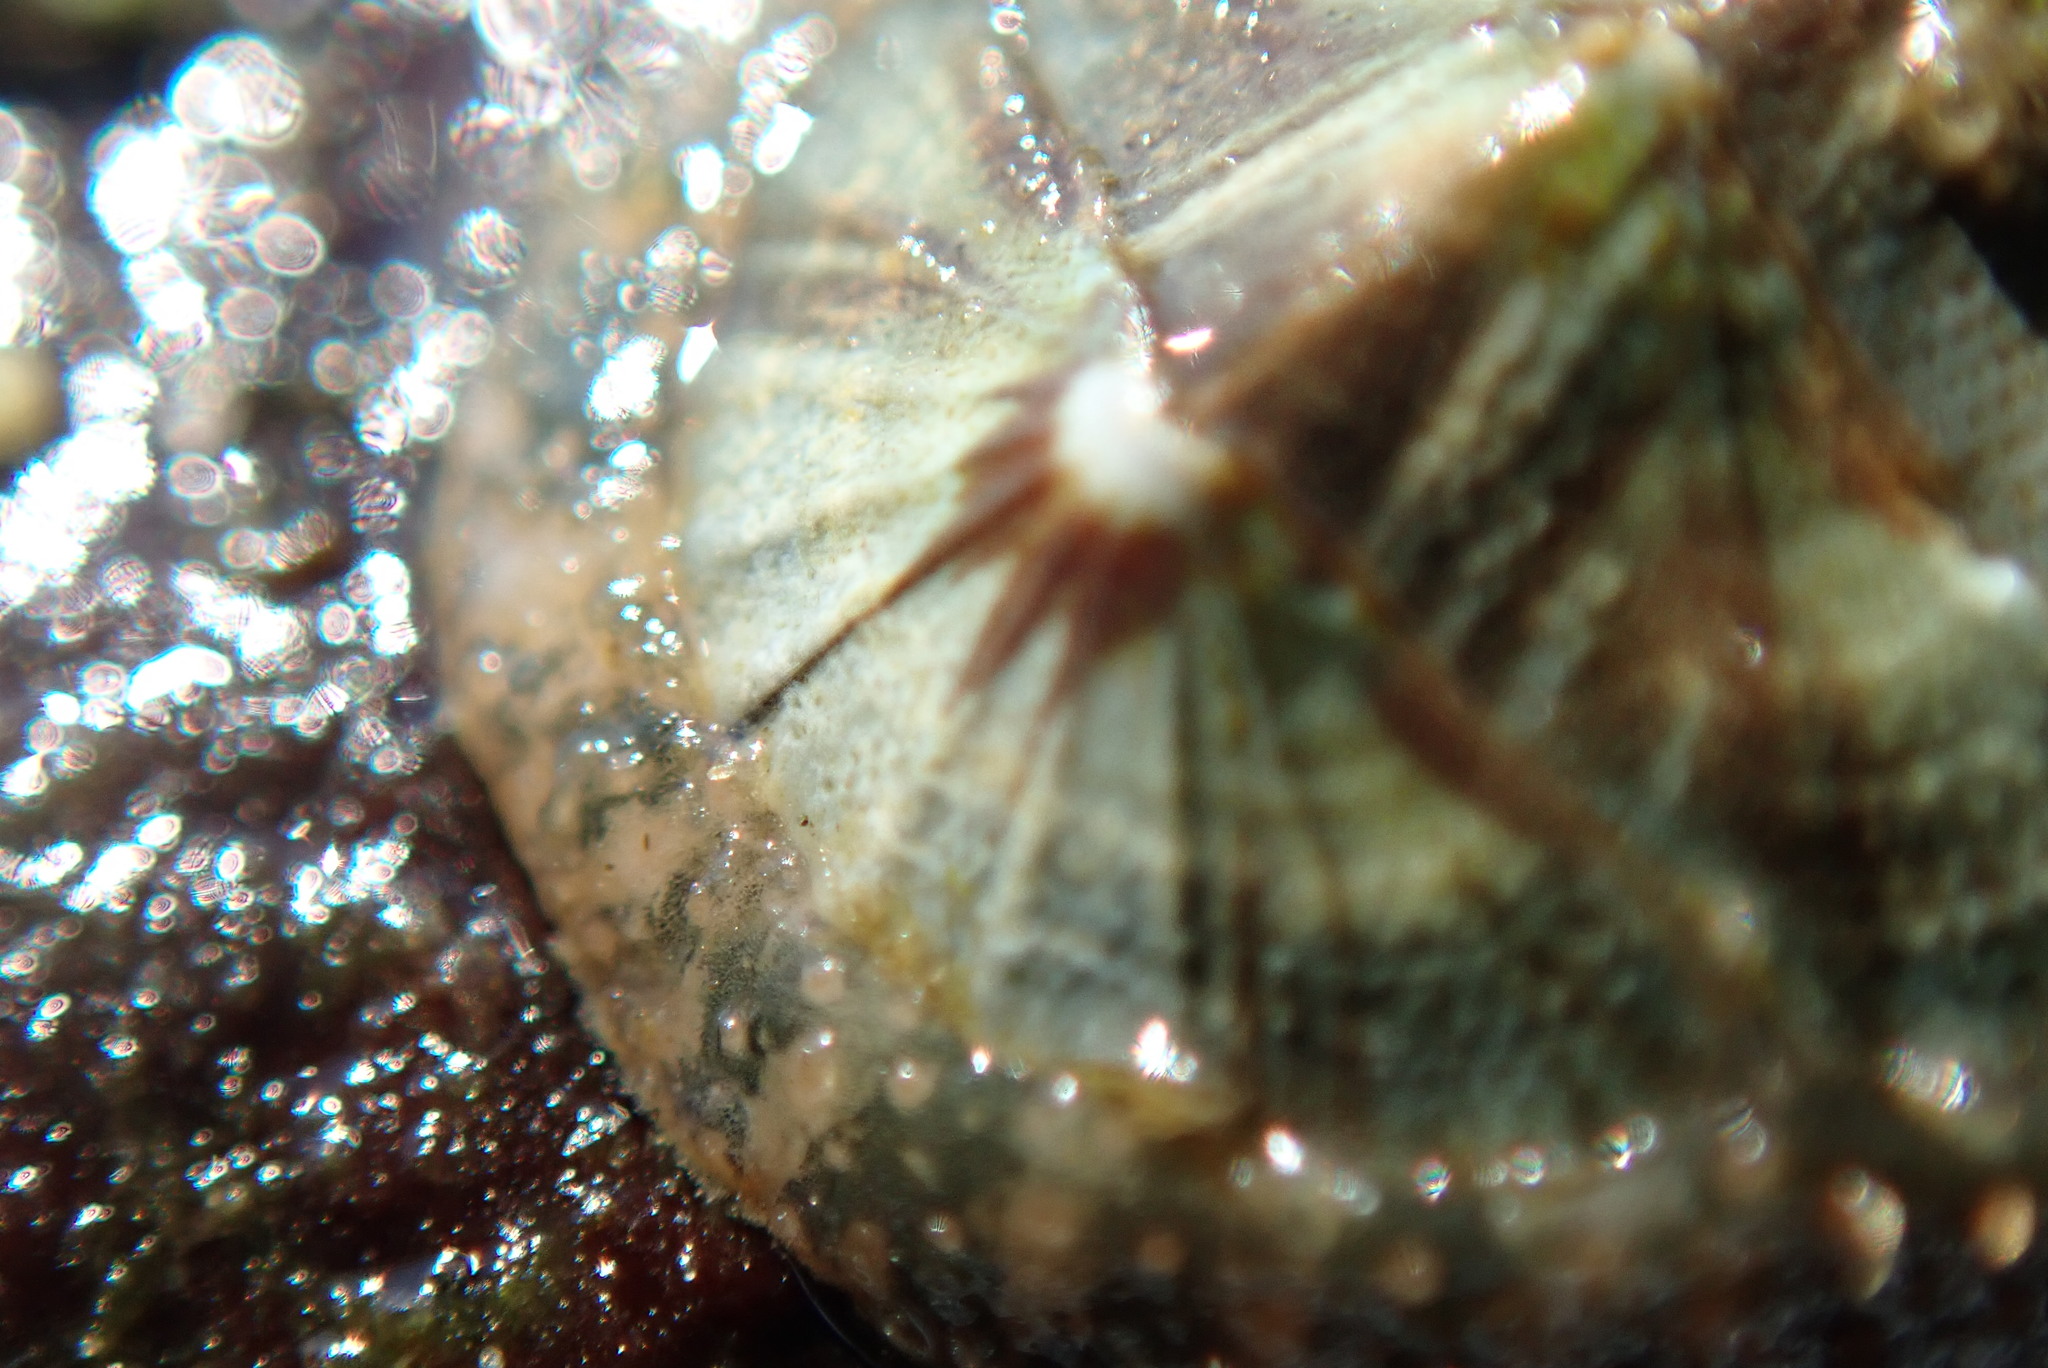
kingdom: Animalia
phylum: Mollusca
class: Polyplacophora
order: Chitonida
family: Mopaliidae
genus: Mopalia
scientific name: Mopalia lignosa
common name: Woody chiton
